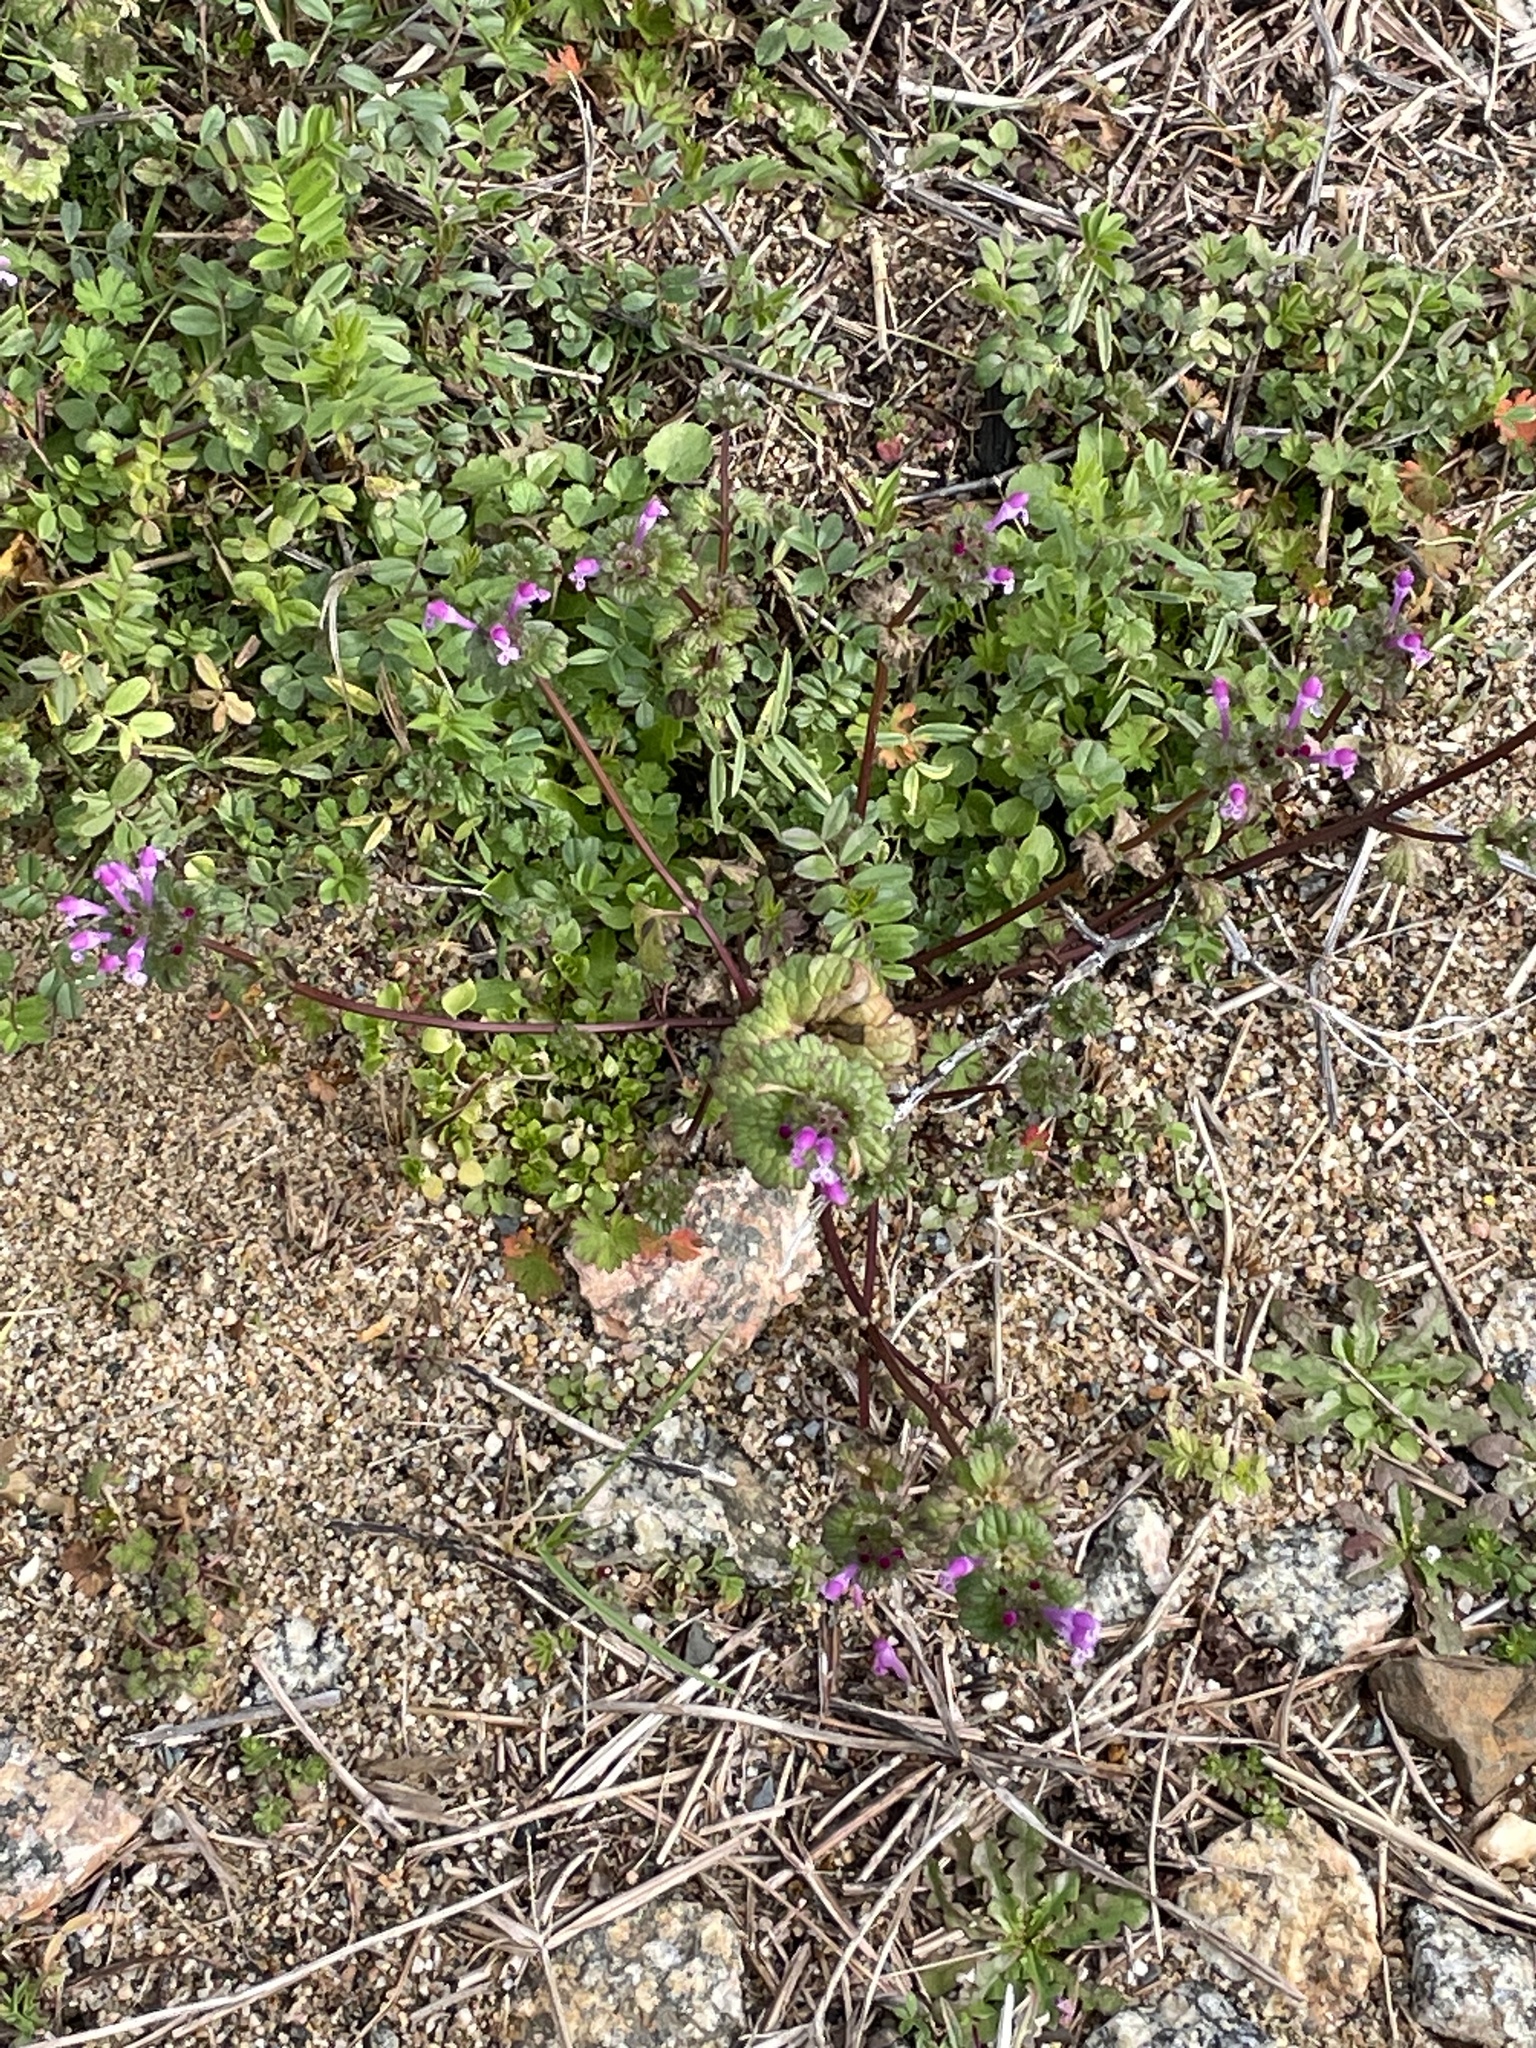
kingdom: Plantae
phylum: Tracheophyta
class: Magnoliopsida
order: Lamiales
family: Lamiaceae
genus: Lamium
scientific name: Lamium amplexicaule
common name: Henbit dead-nettle
